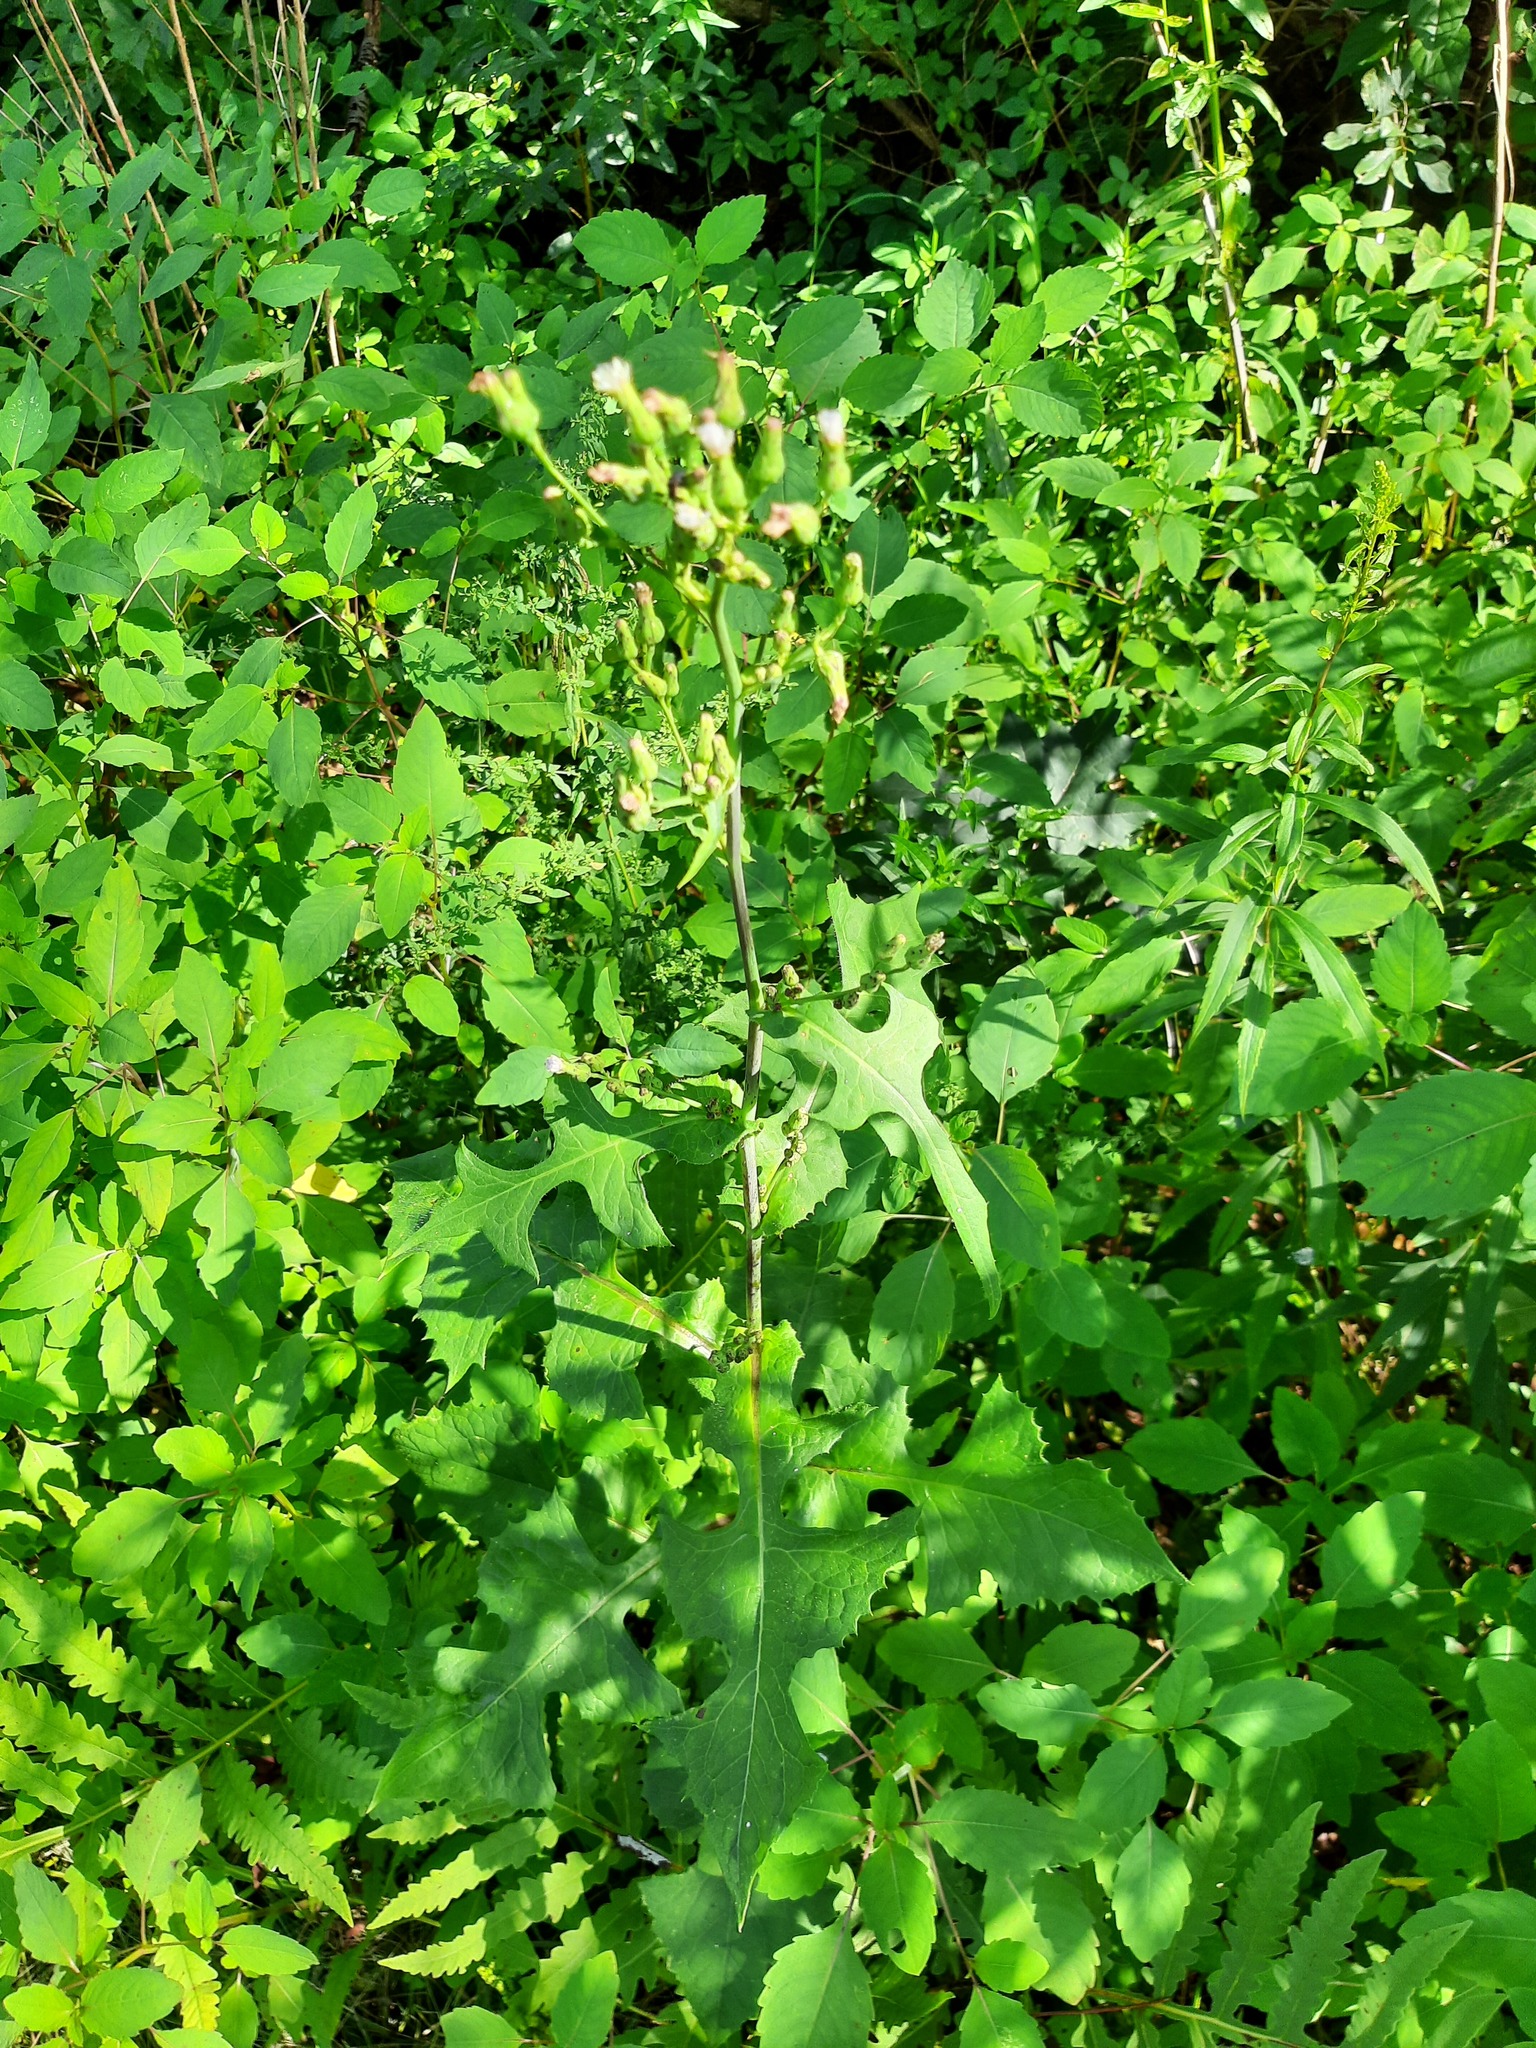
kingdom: Plantae
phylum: Tracheophyta
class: Magnoliopsida
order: Asterales
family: Asteraceae
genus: Lactuca
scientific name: Lactuca biennis
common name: Blue wood lettuce
